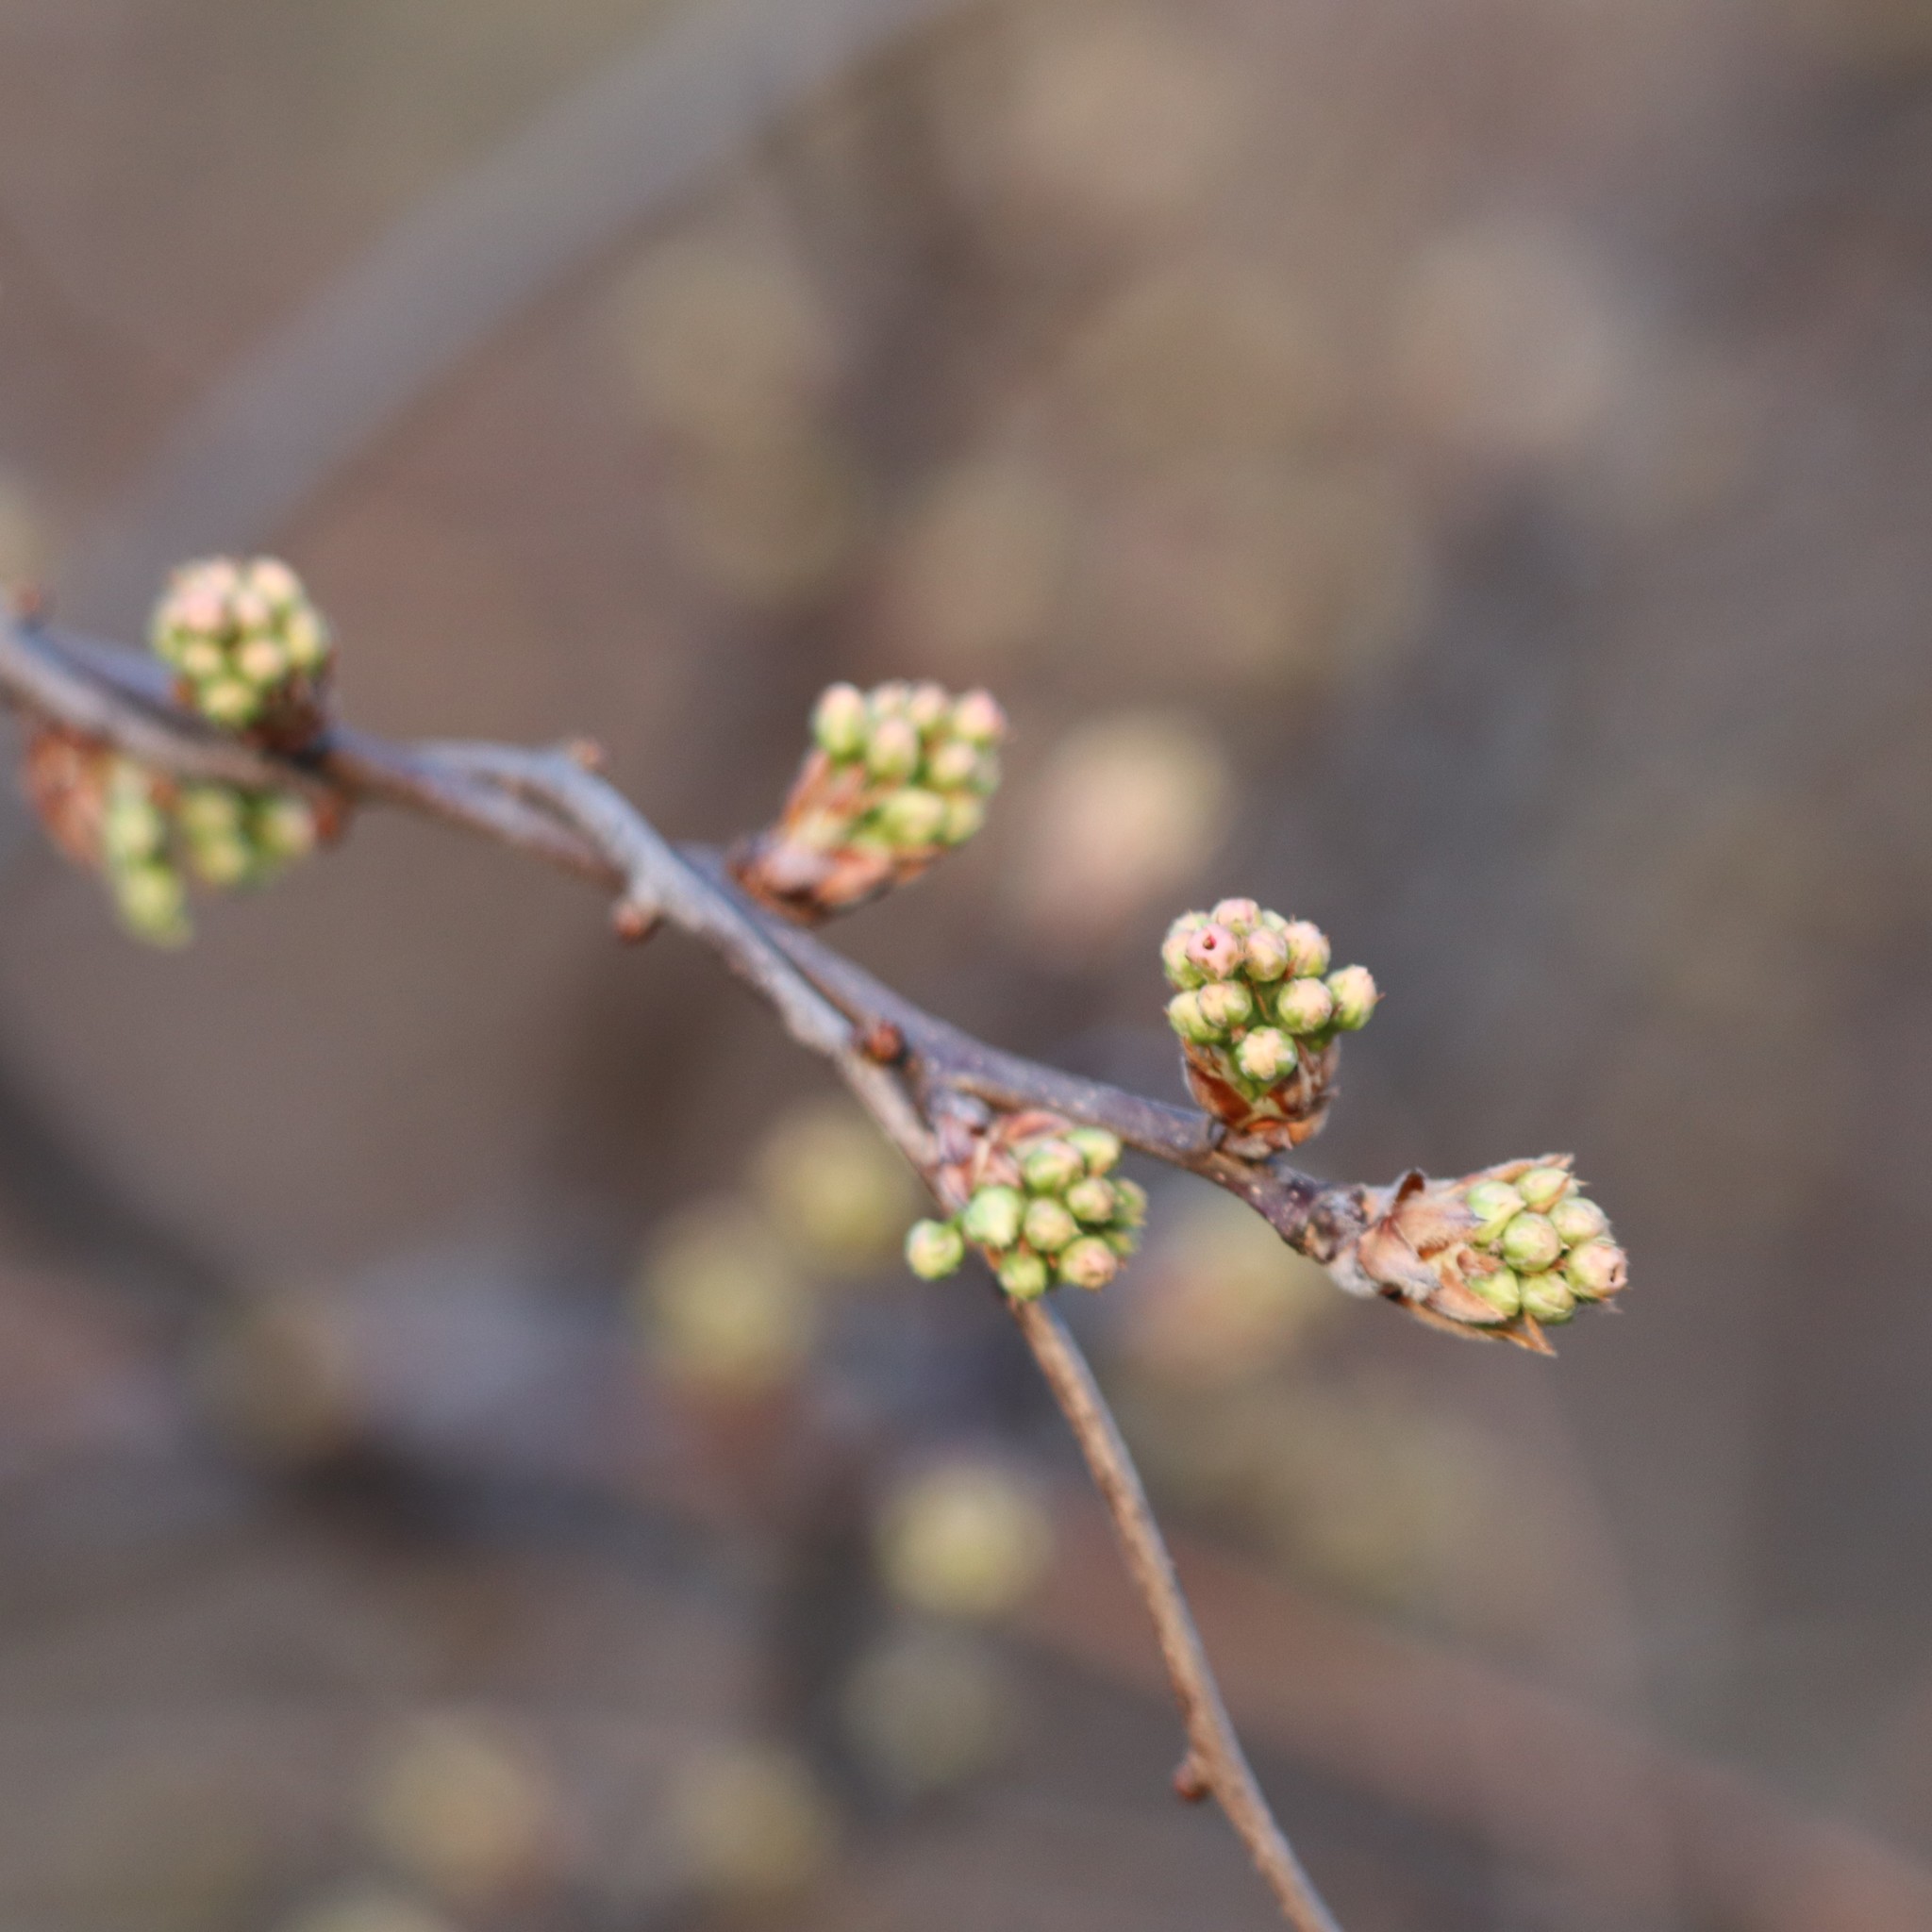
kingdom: Plantae
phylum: Tracheophyta
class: Magnoliopsida
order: Rosales
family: Rosaceae
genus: Pyrus
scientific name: Pyrus calleryana
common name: Callery pear
